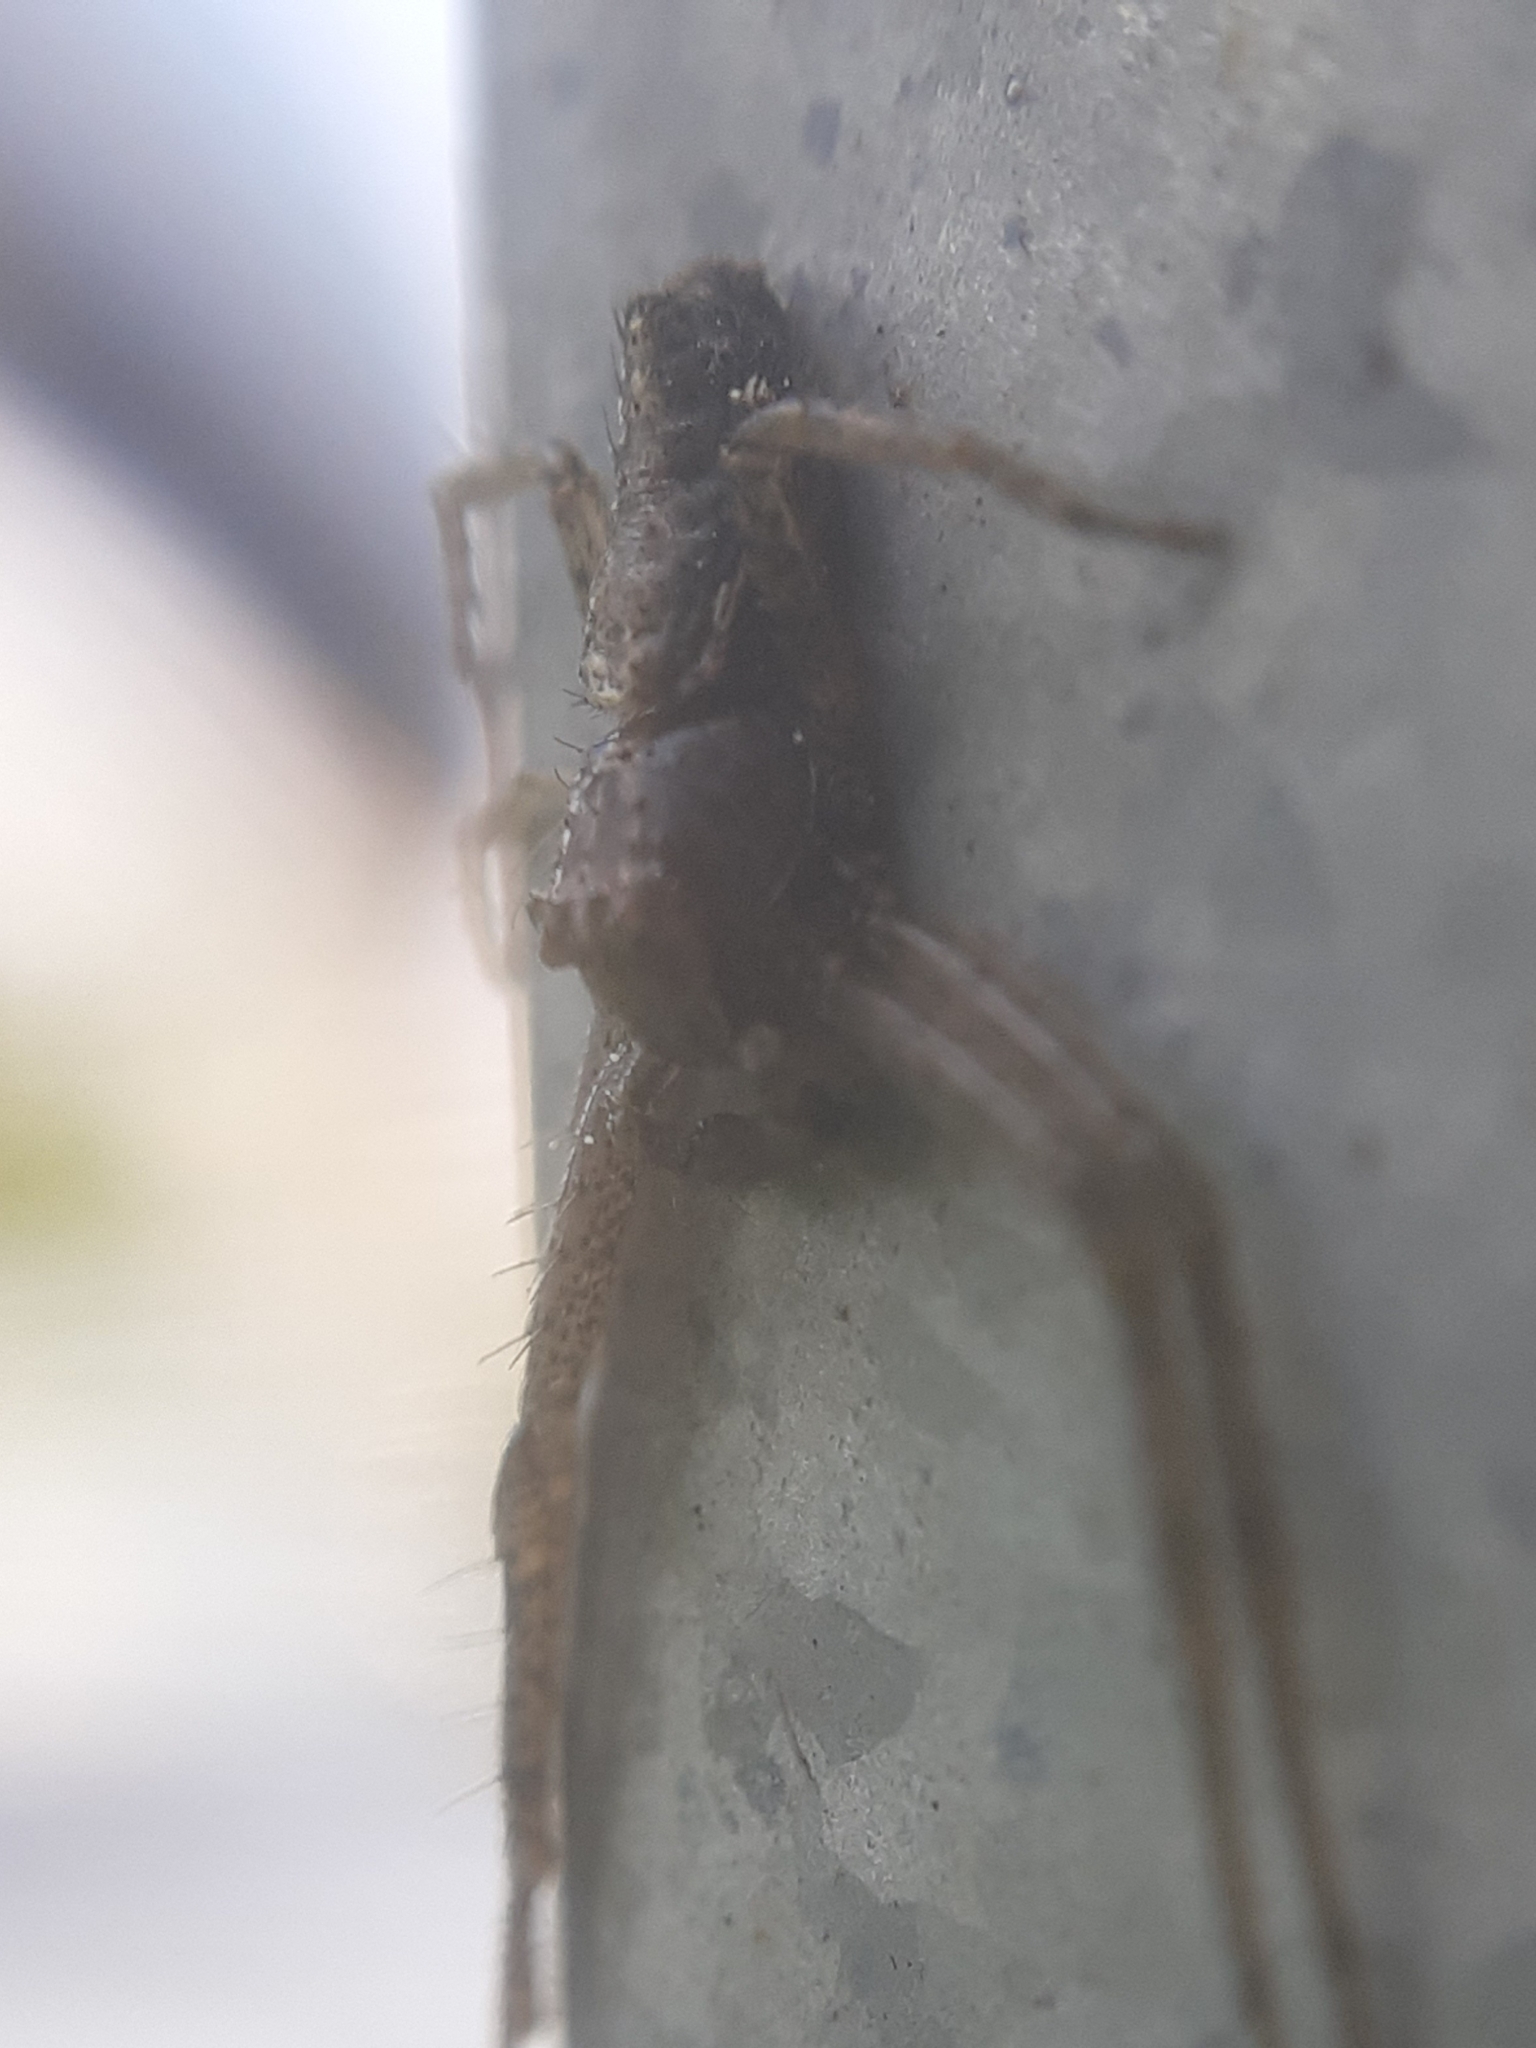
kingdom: Animalia
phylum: Arthropoda
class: Arachnida
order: Araneae
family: Thomisidae
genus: Tmarus
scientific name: Tmarus piger
